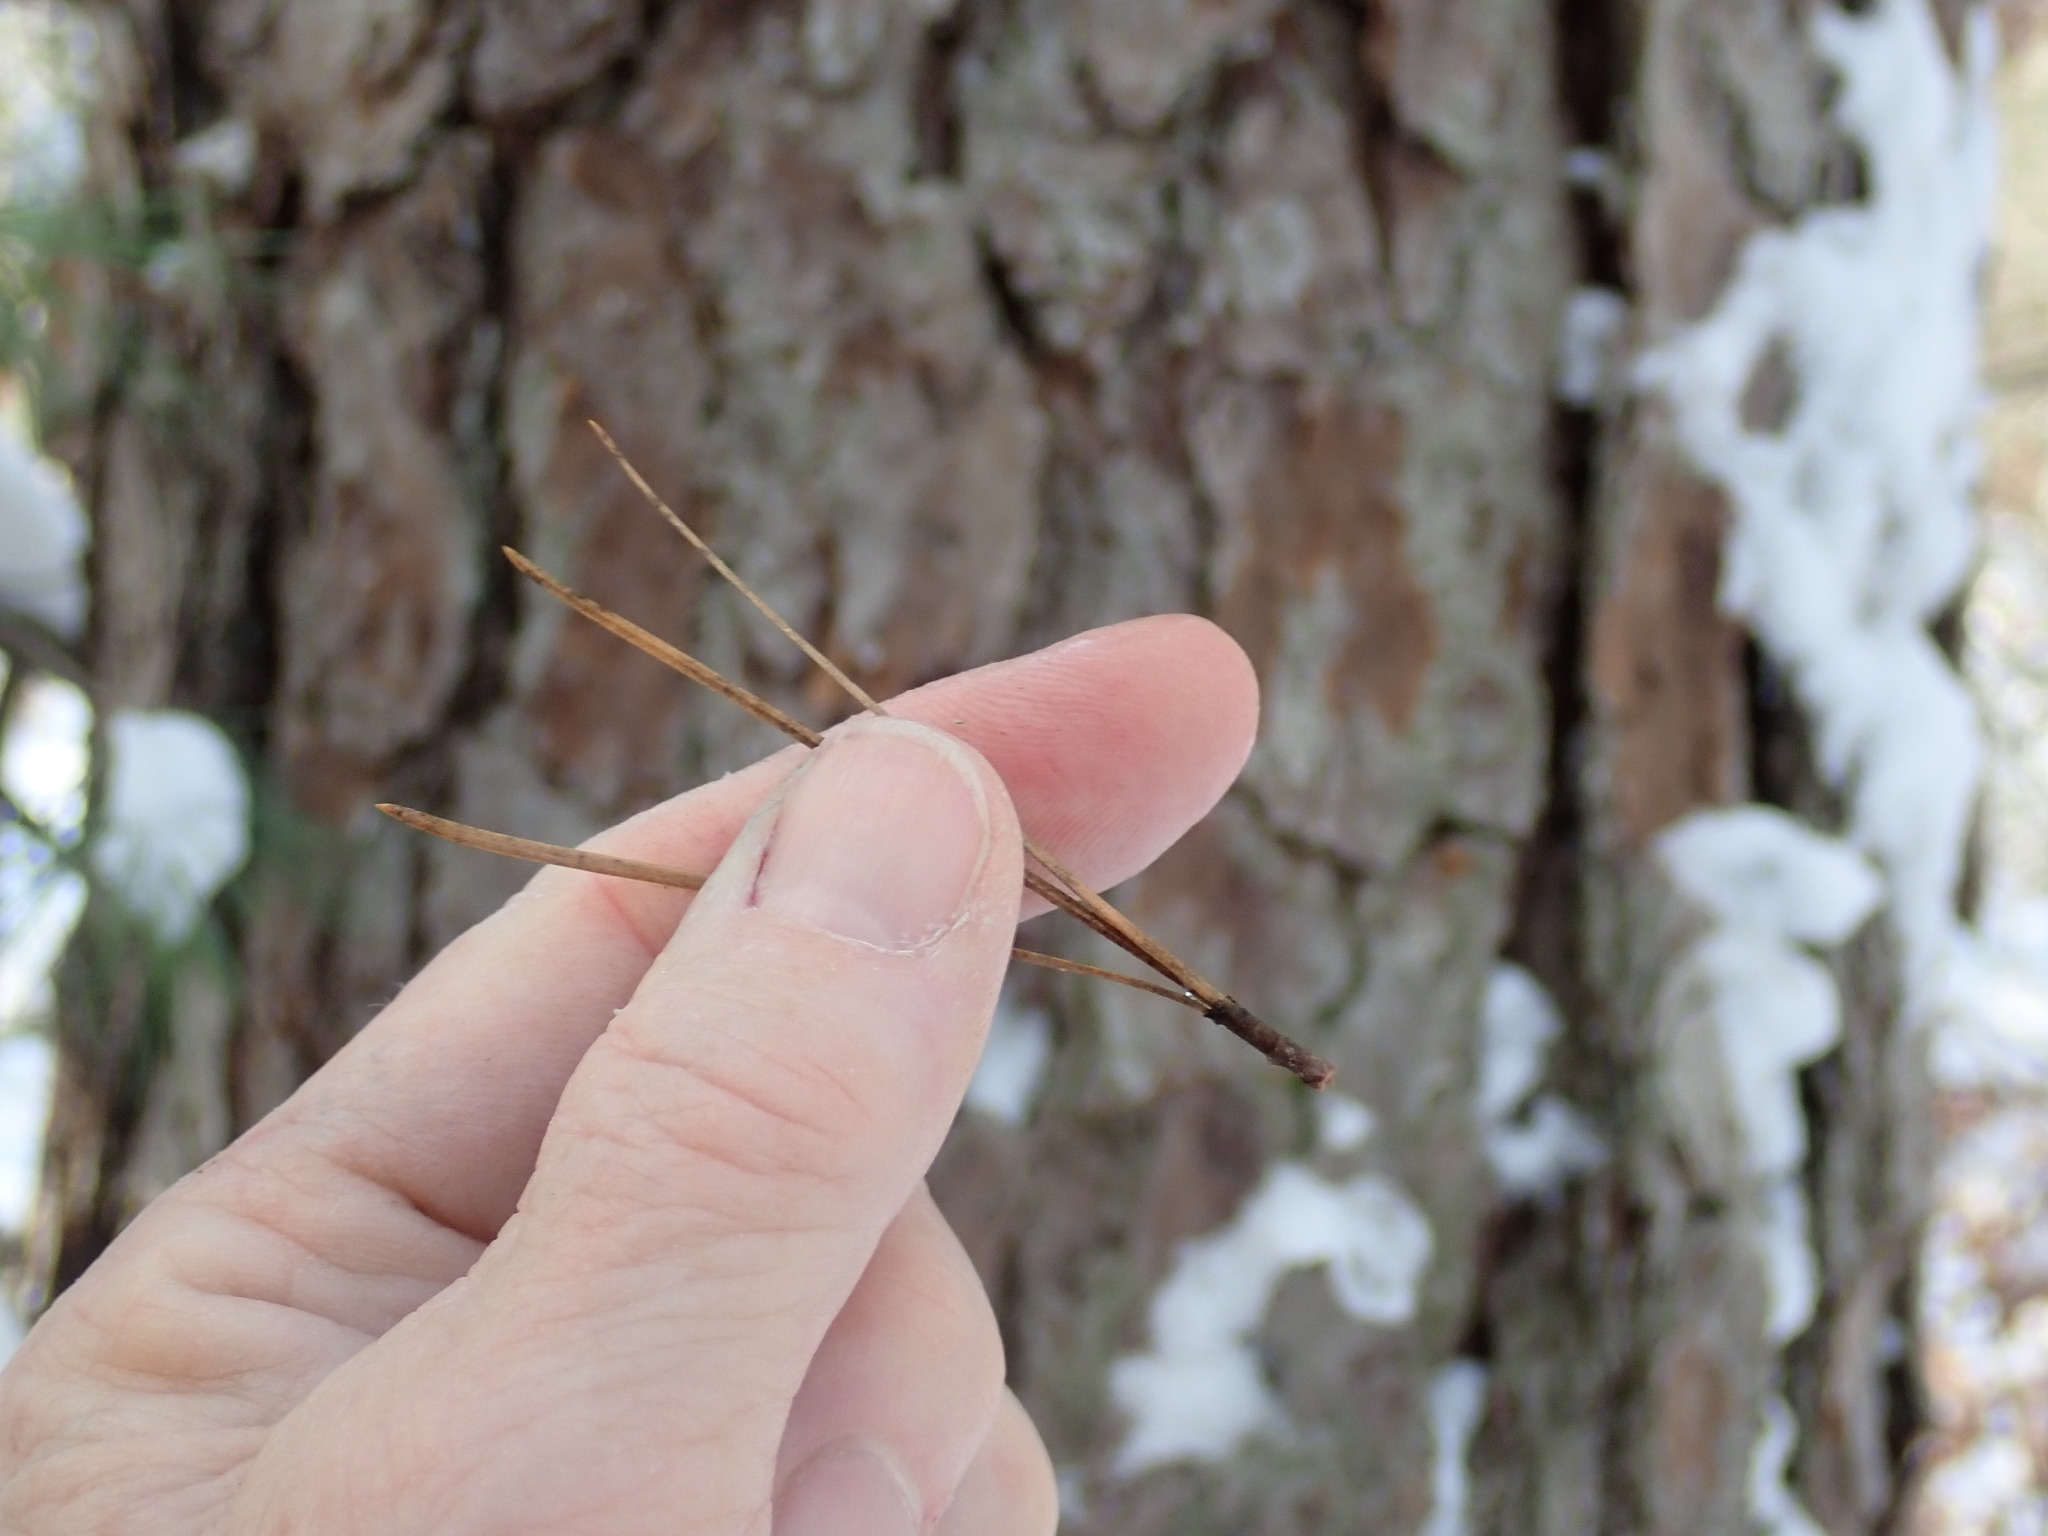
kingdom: Plantae
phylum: Tracheophyta
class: Pinopsida
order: Pinales
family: Pinaceae
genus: Pinus
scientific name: Pinus rigida
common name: Pitch pine
